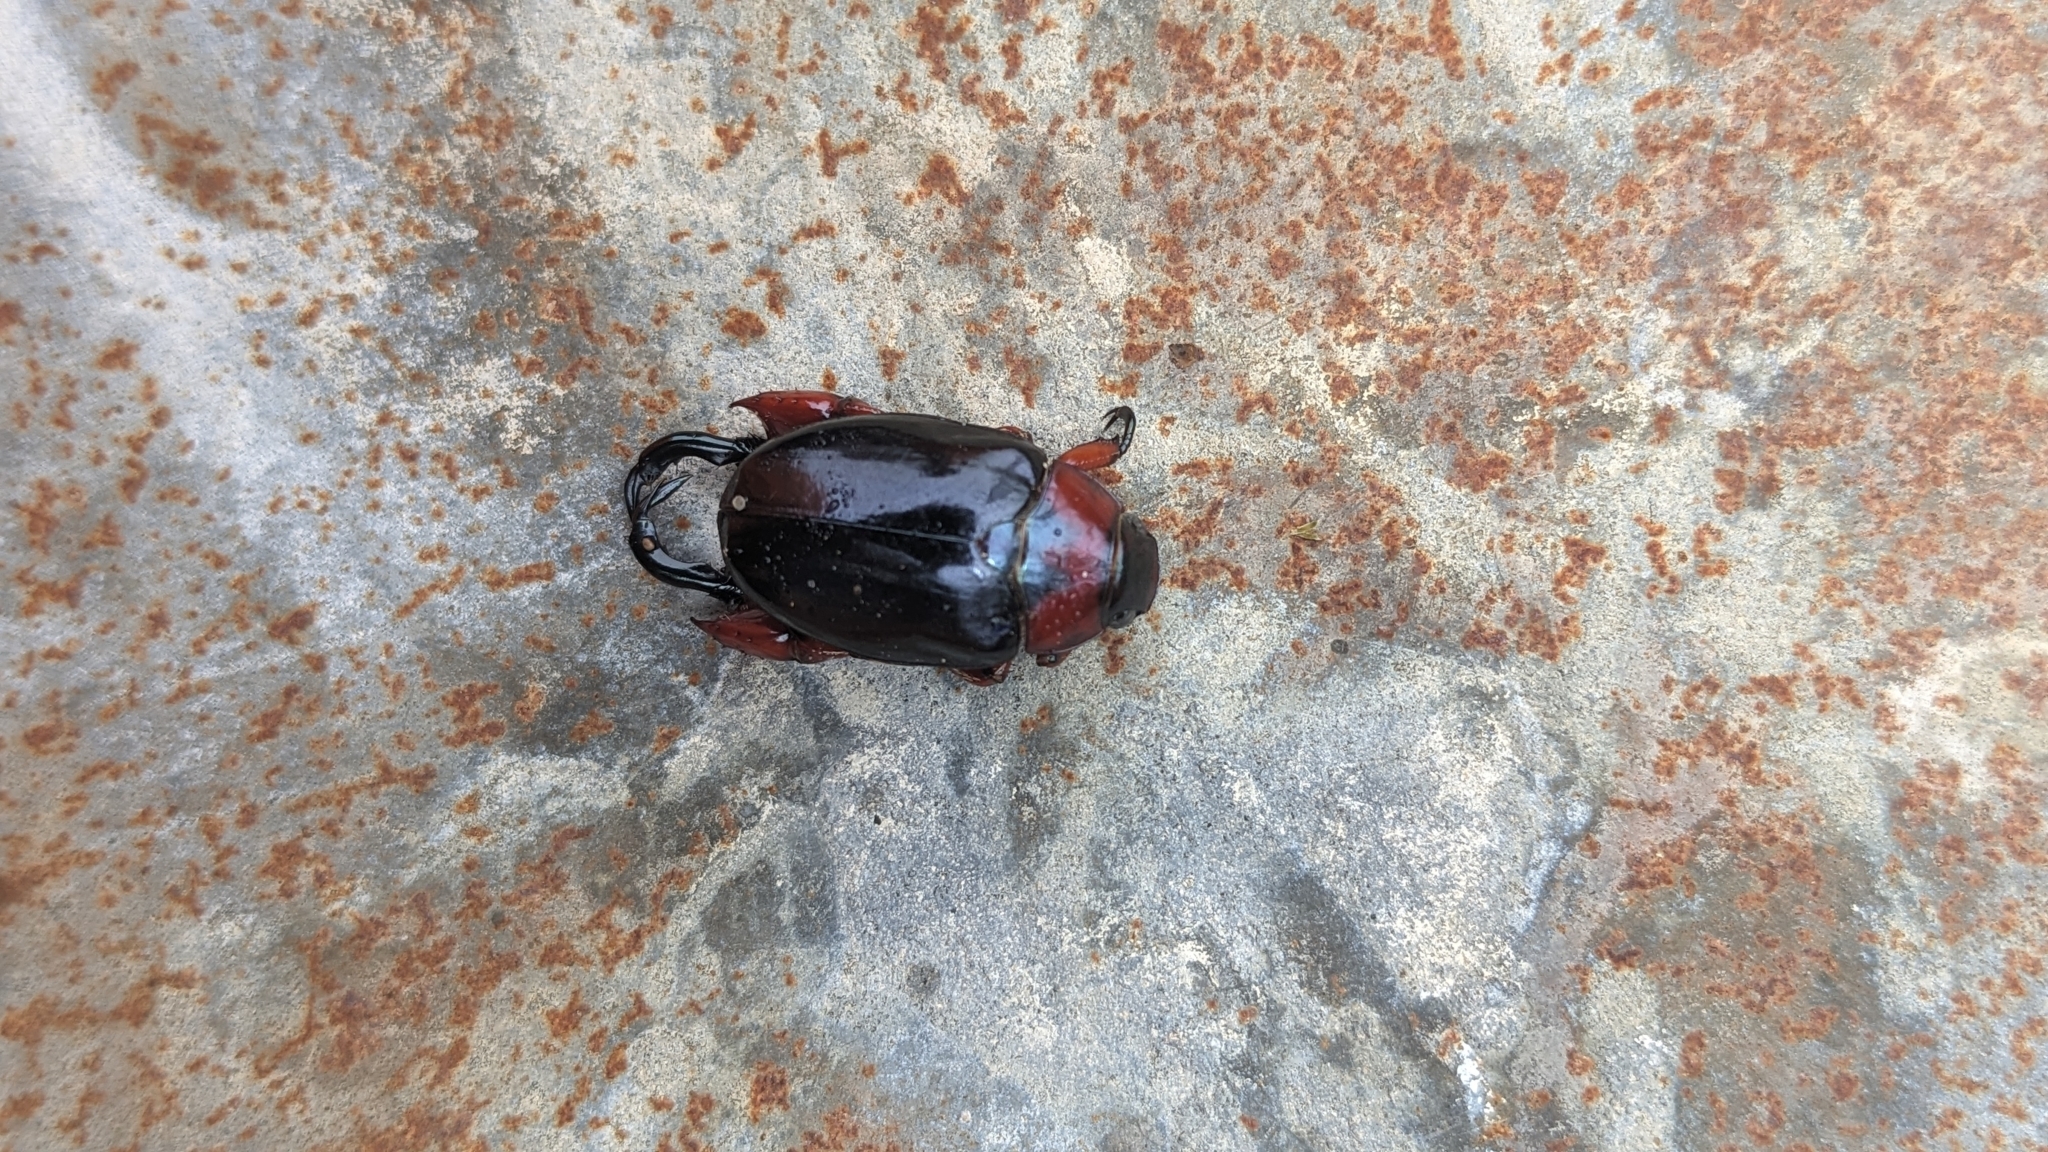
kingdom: Animalia
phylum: Arthropoda
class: Insecta
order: Coleoptera
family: Scarabaeidae
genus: Repsimus
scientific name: Repsimus manicatus
